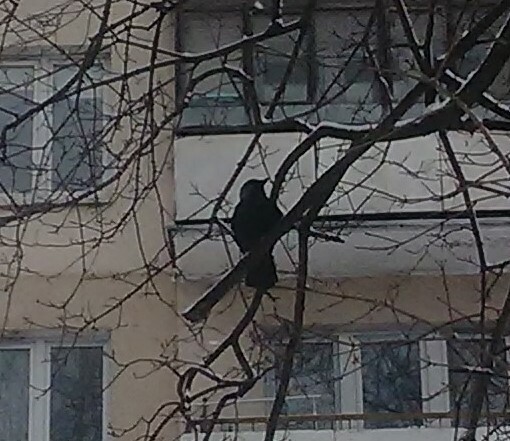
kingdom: Animalia
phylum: Chordata
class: Aves
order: Passeriformes
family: Corvidae
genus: Coloeus
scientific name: Coloeus monedula
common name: Western jackdaw
